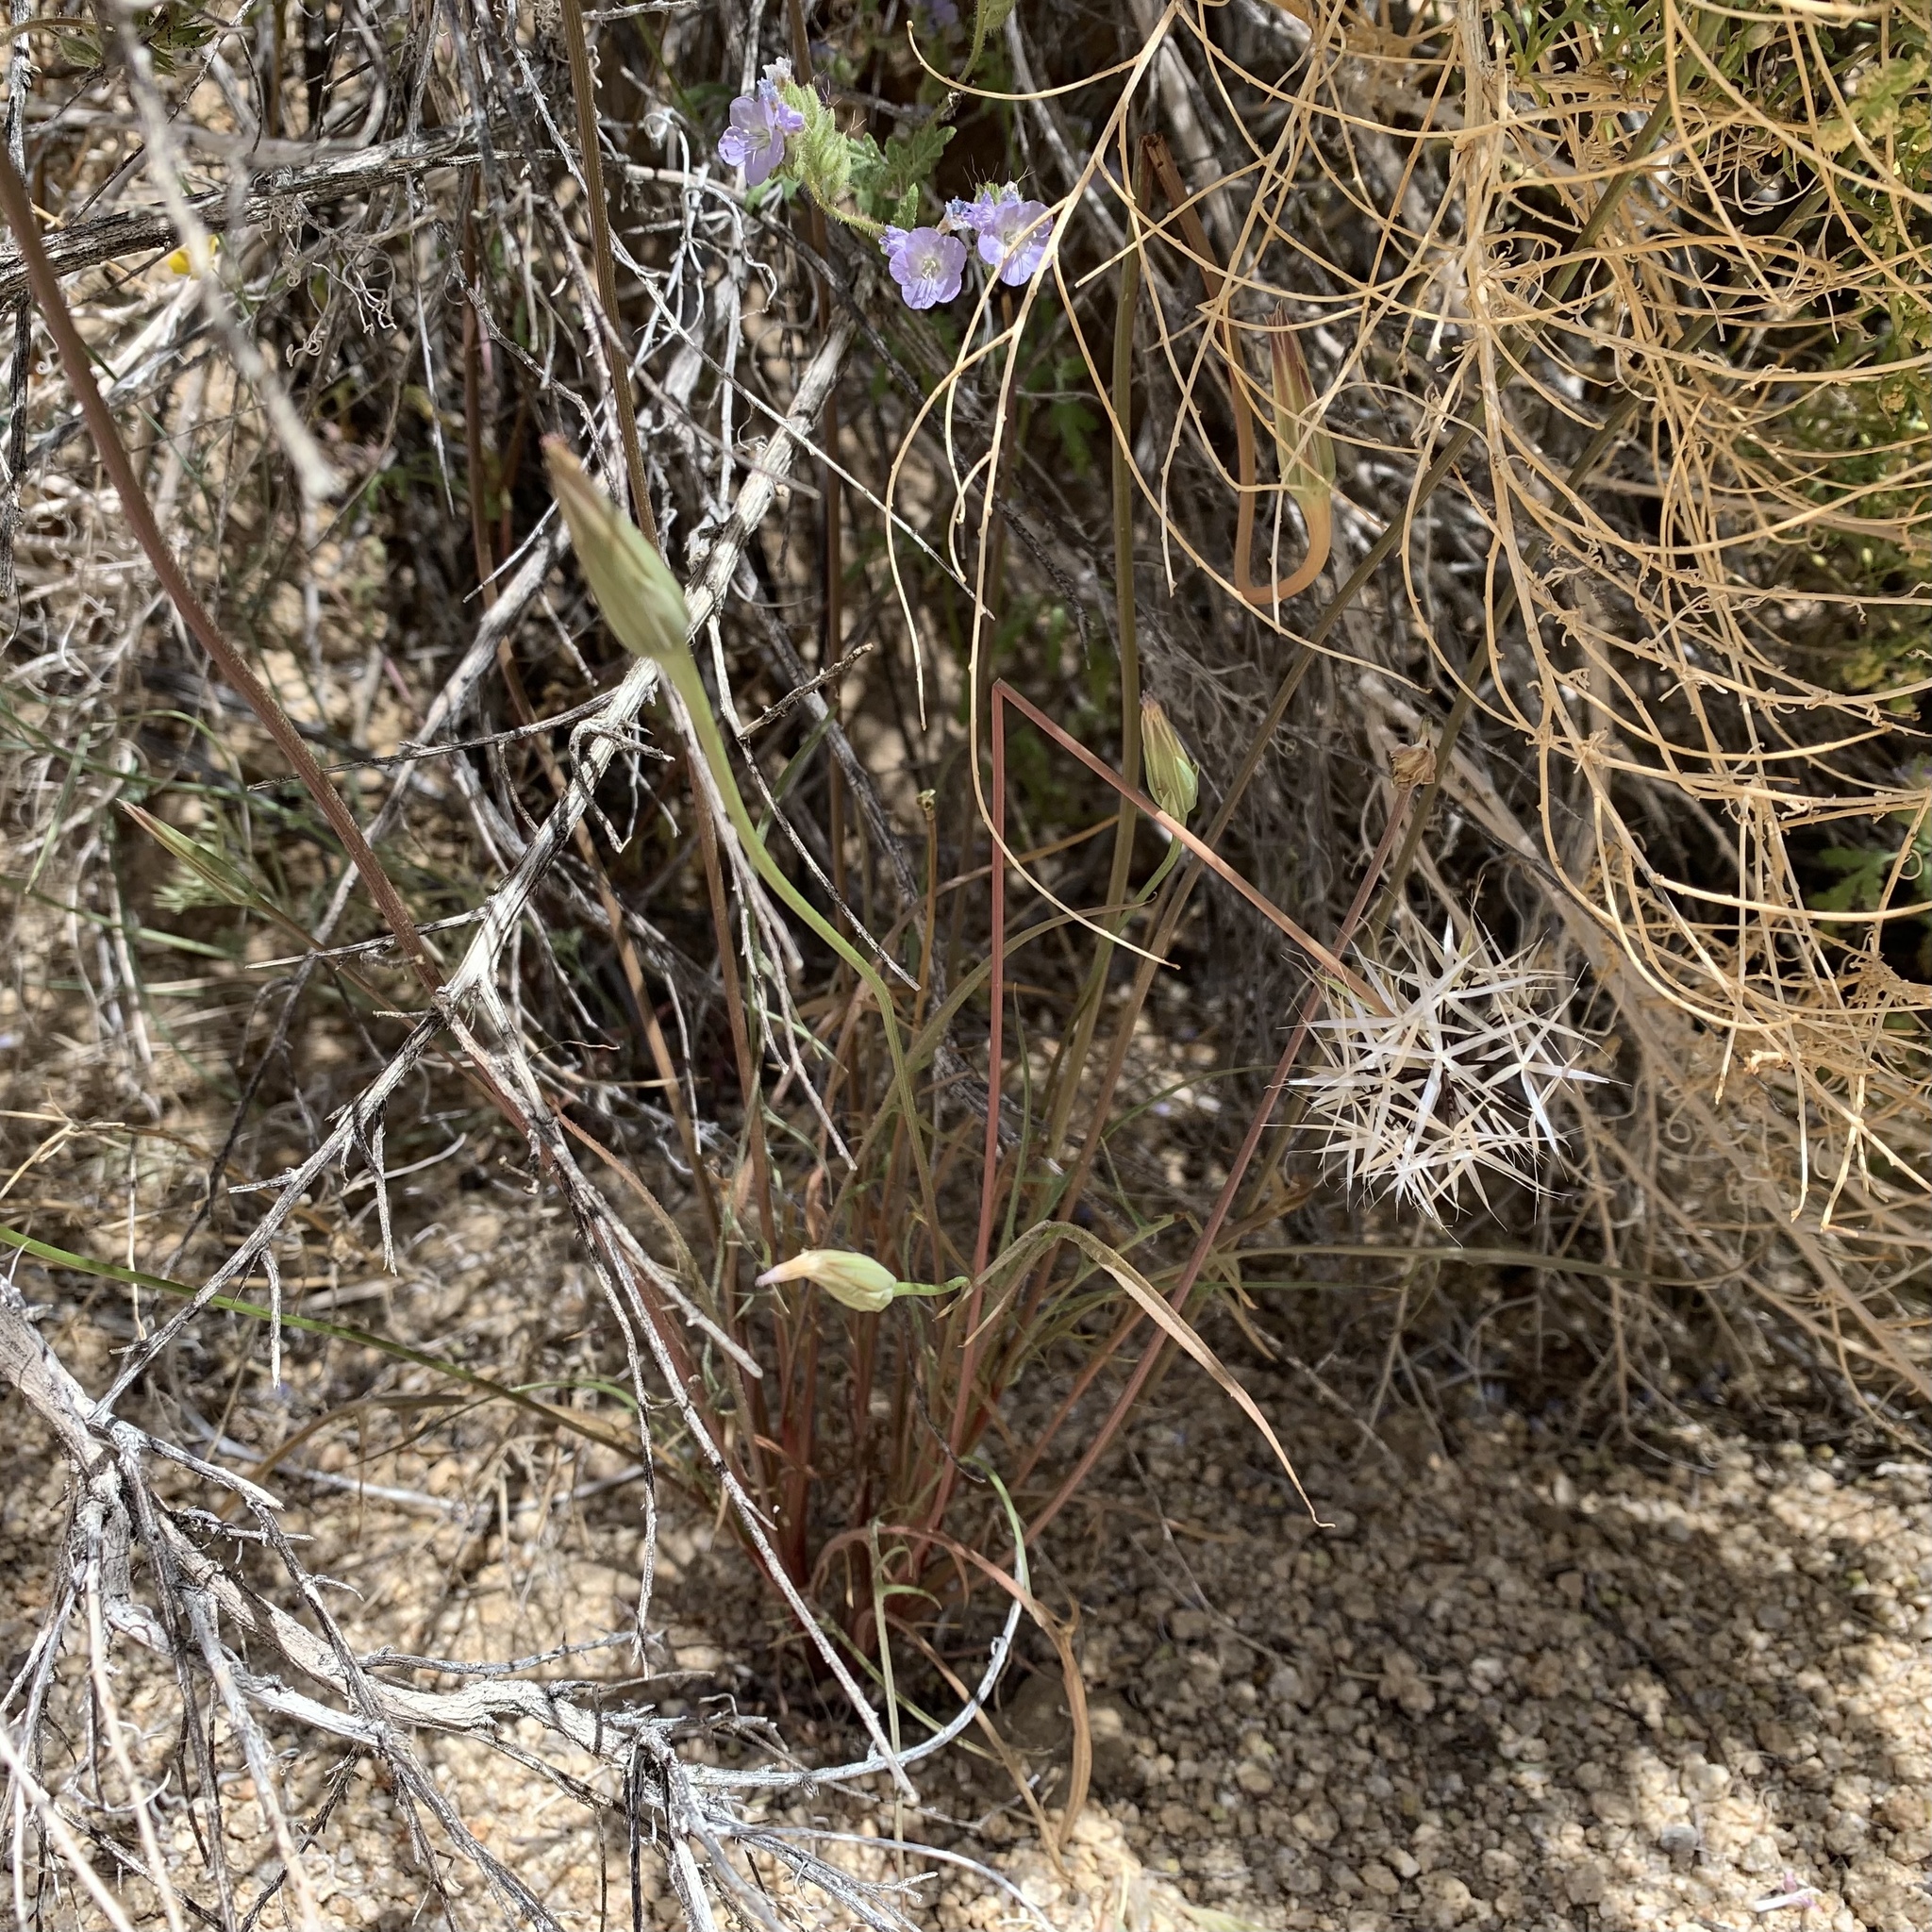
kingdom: Plantae
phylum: Tracheophyta
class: Magnoliopsida
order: Asterales
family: Asteraceae
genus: Microseris
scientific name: Microseris lindleyi
